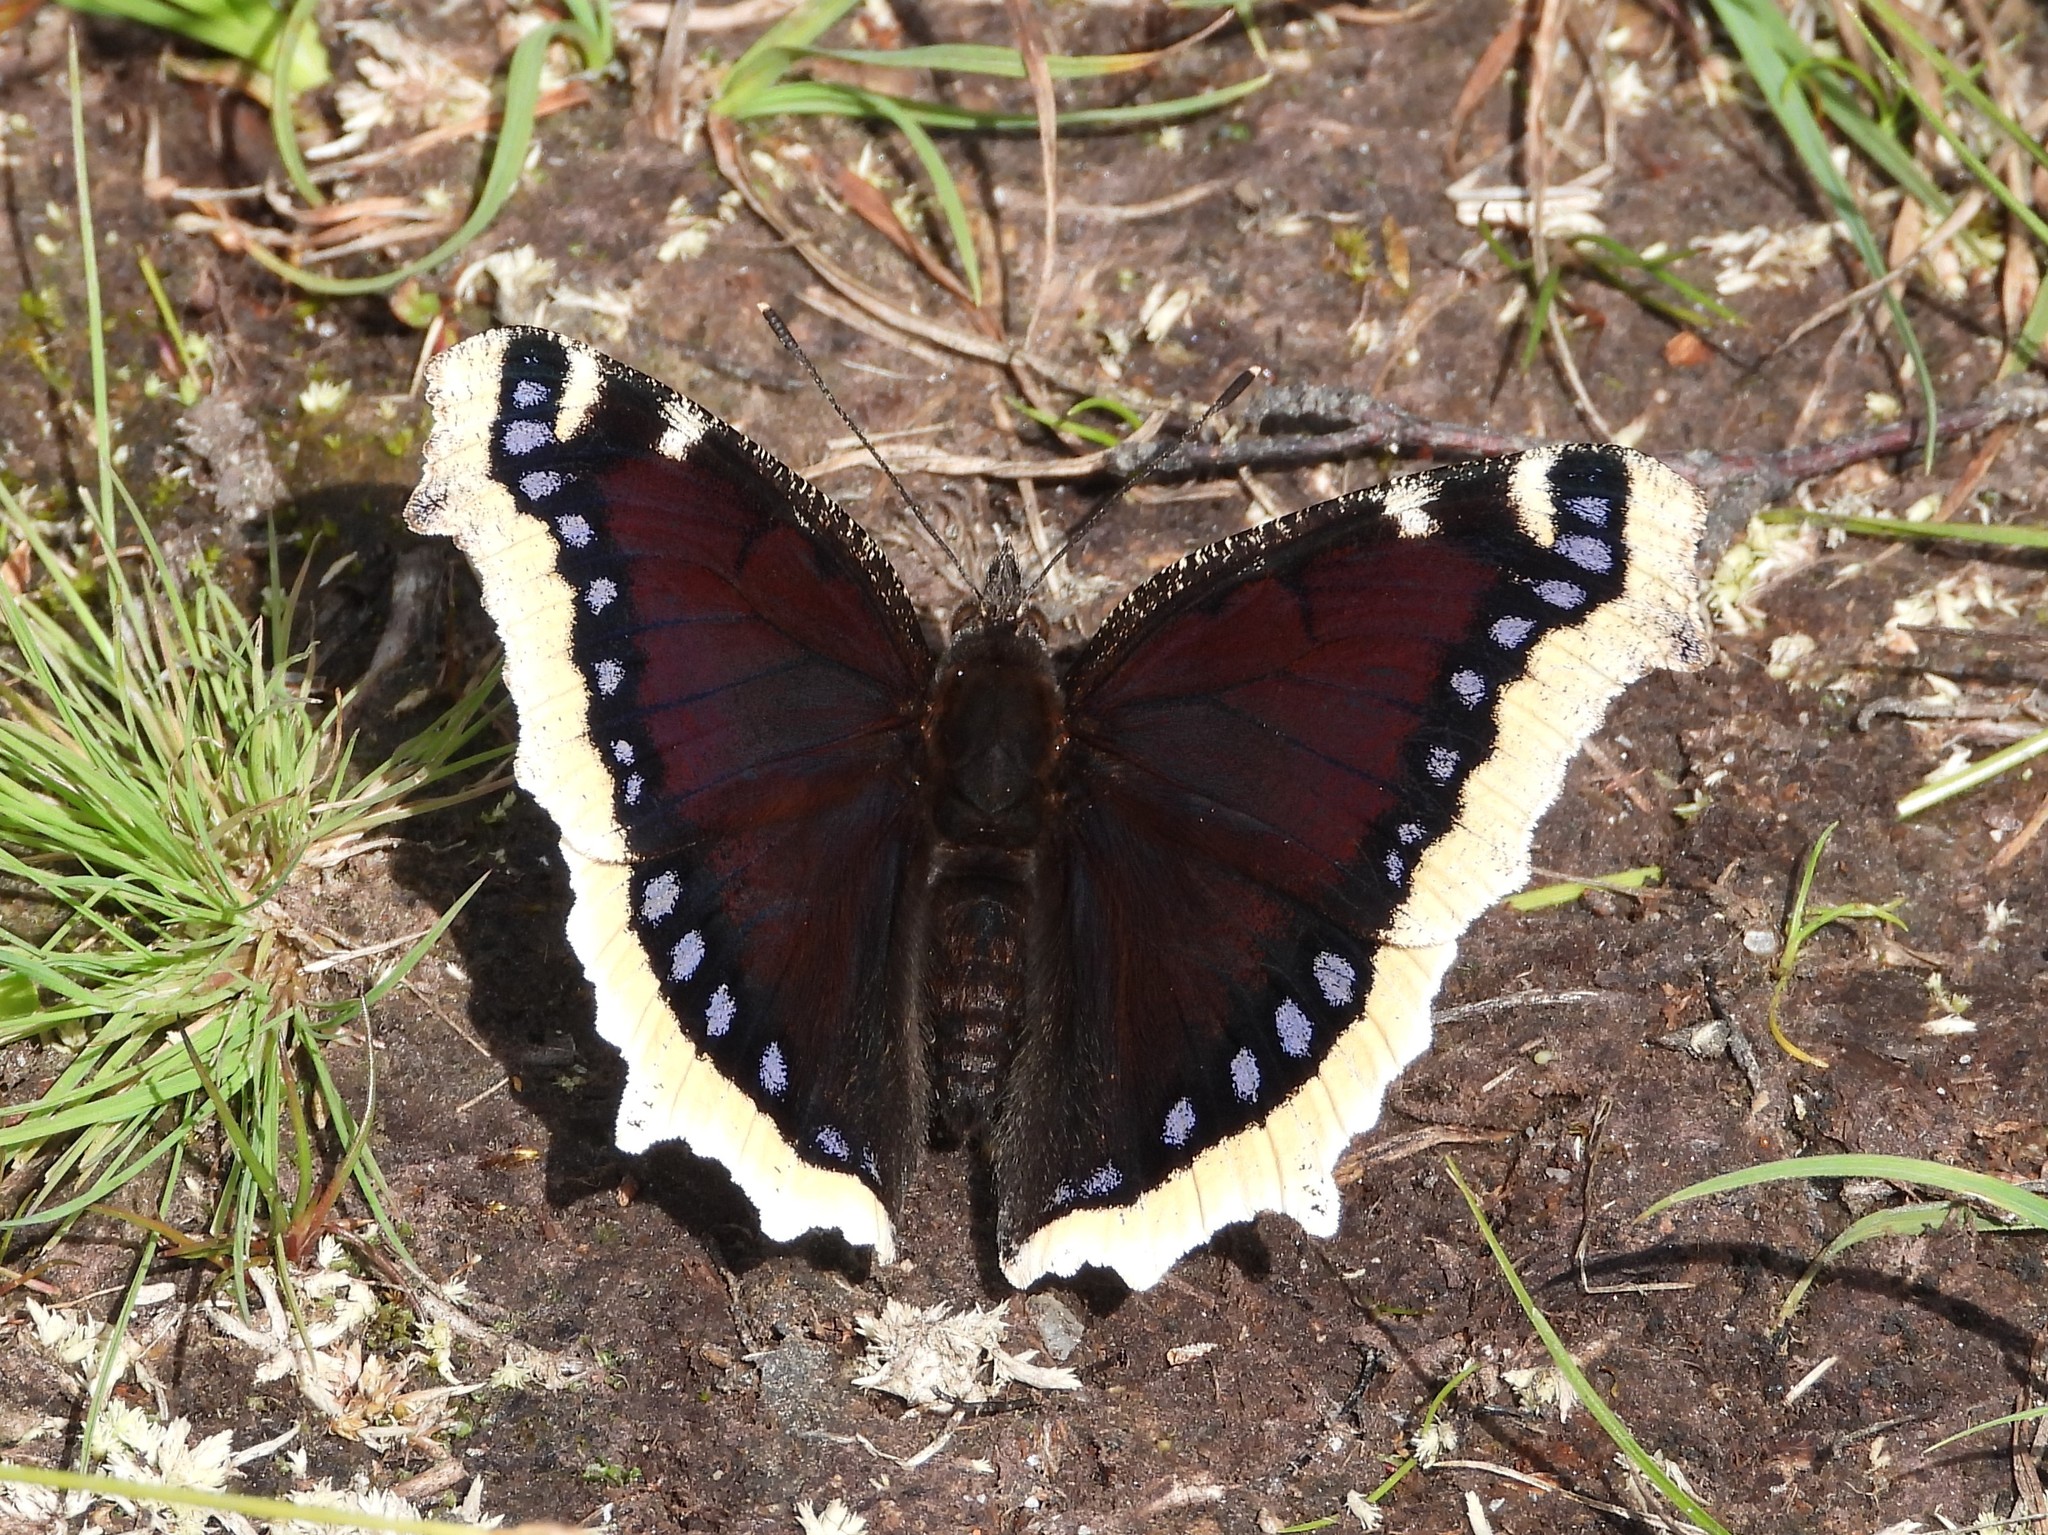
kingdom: Animalia
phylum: Arthropoda
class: Insecta
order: Lepidoptera
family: Nymphalidae
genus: Nymphalis
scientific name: Nymphalis antiopa
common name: Camberwell beauty
